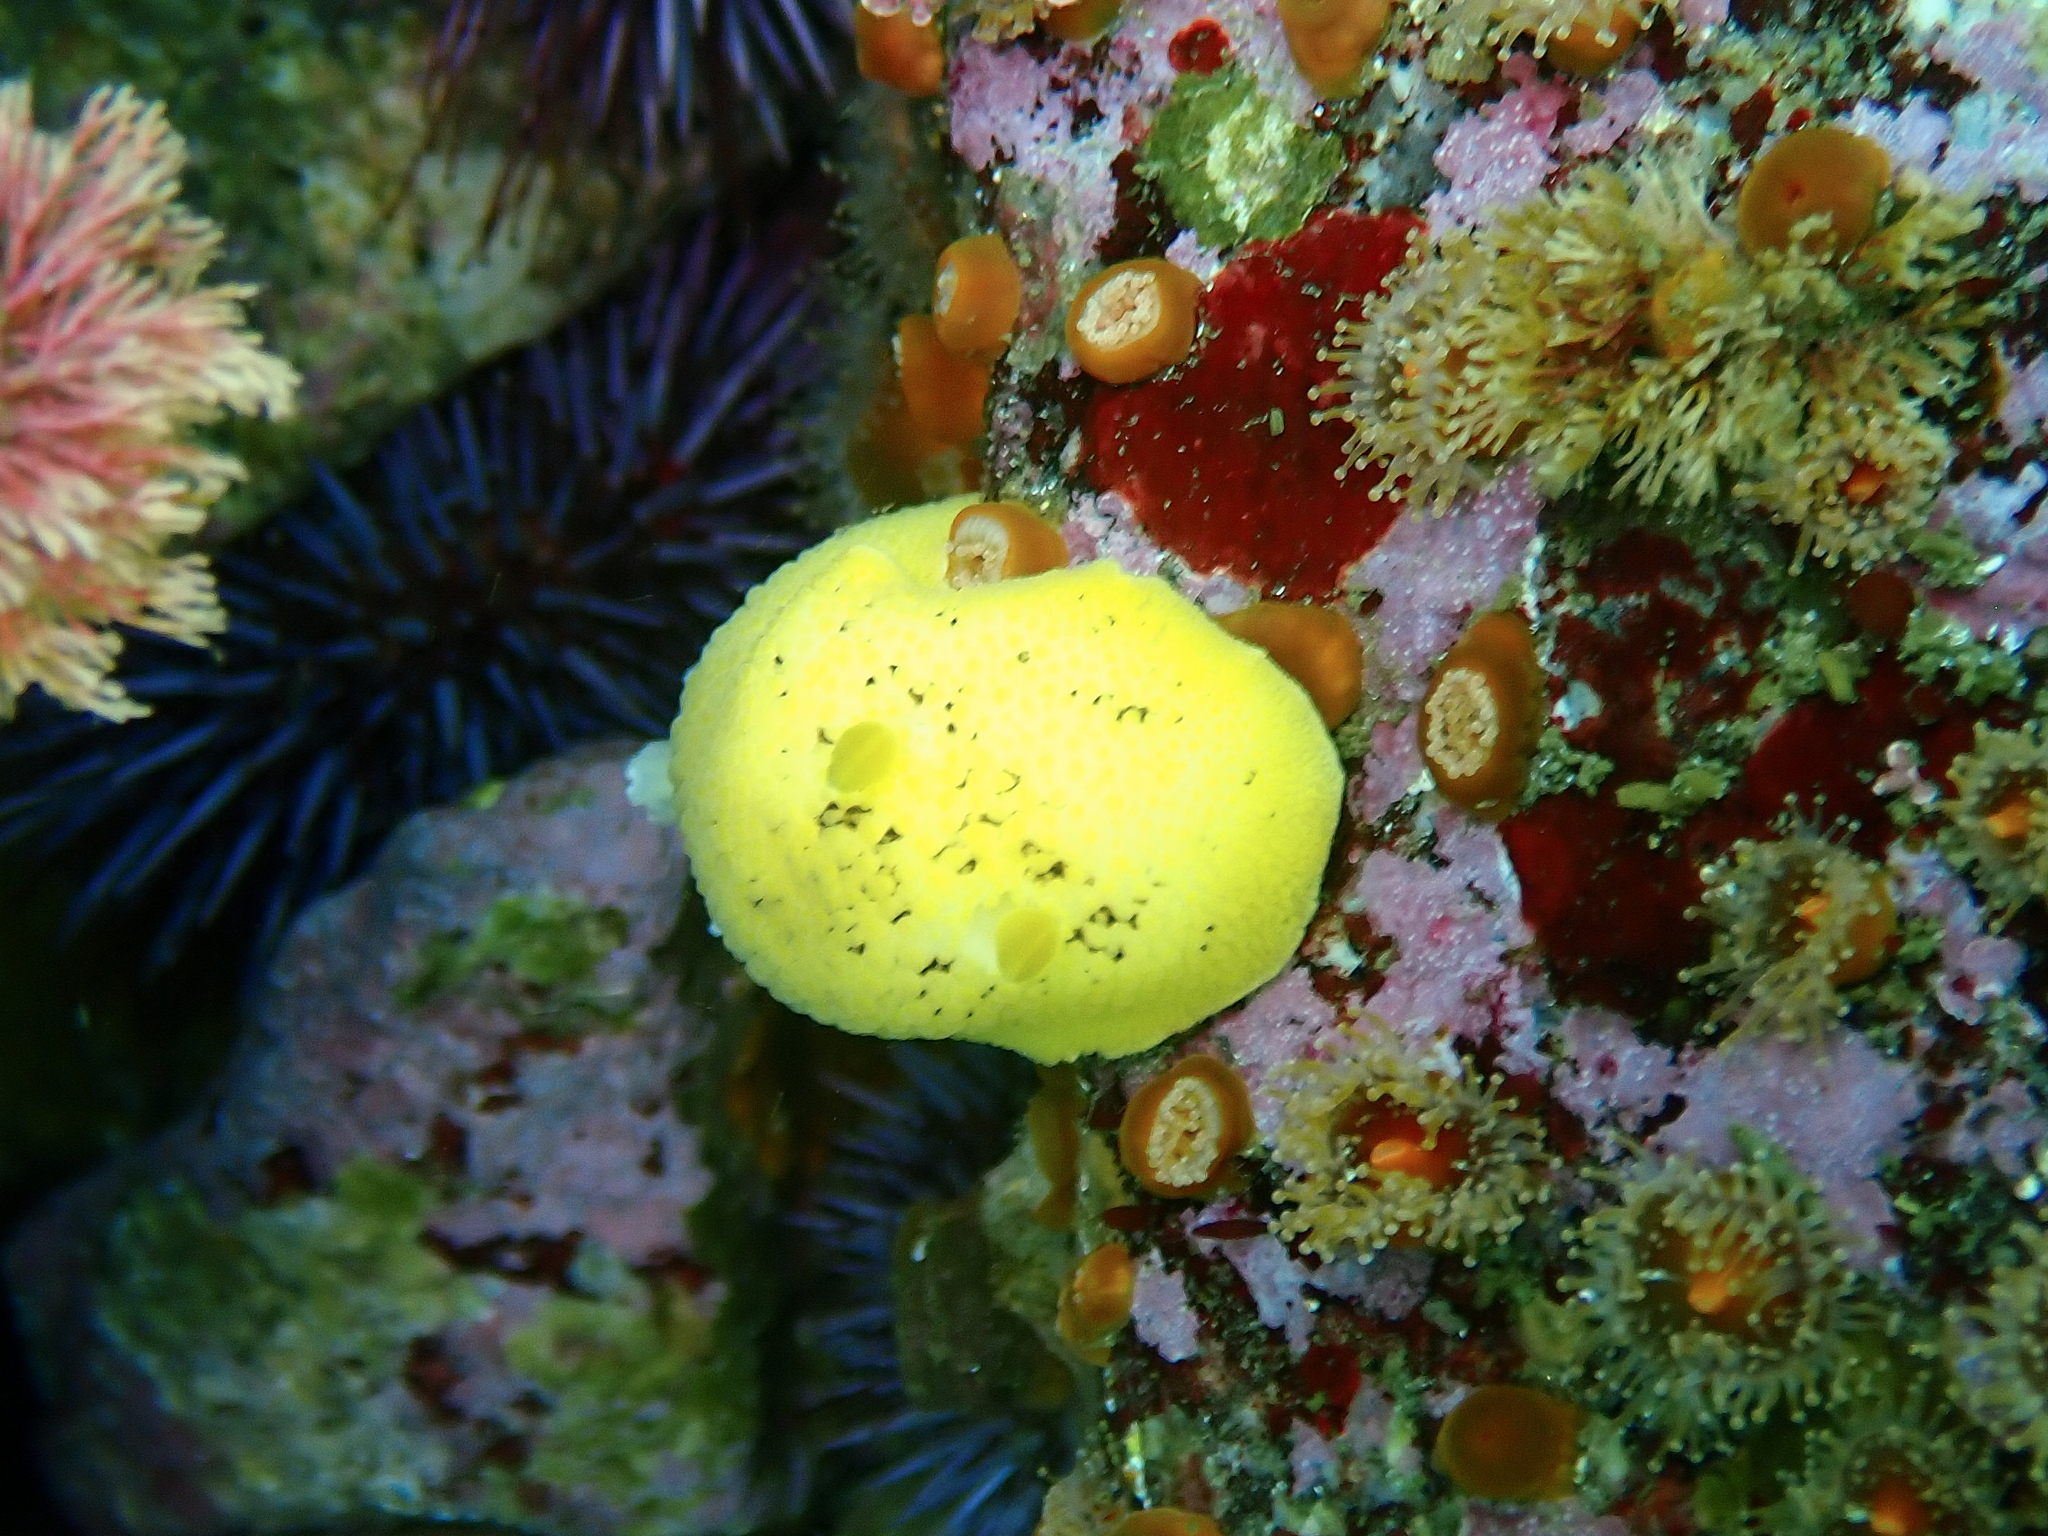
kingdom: Animalia
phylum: Mollusca
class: Gastropoda
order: Nudibranchia
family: Discodorididae
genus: Peltodoris
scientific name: Peltodoris nobilis
